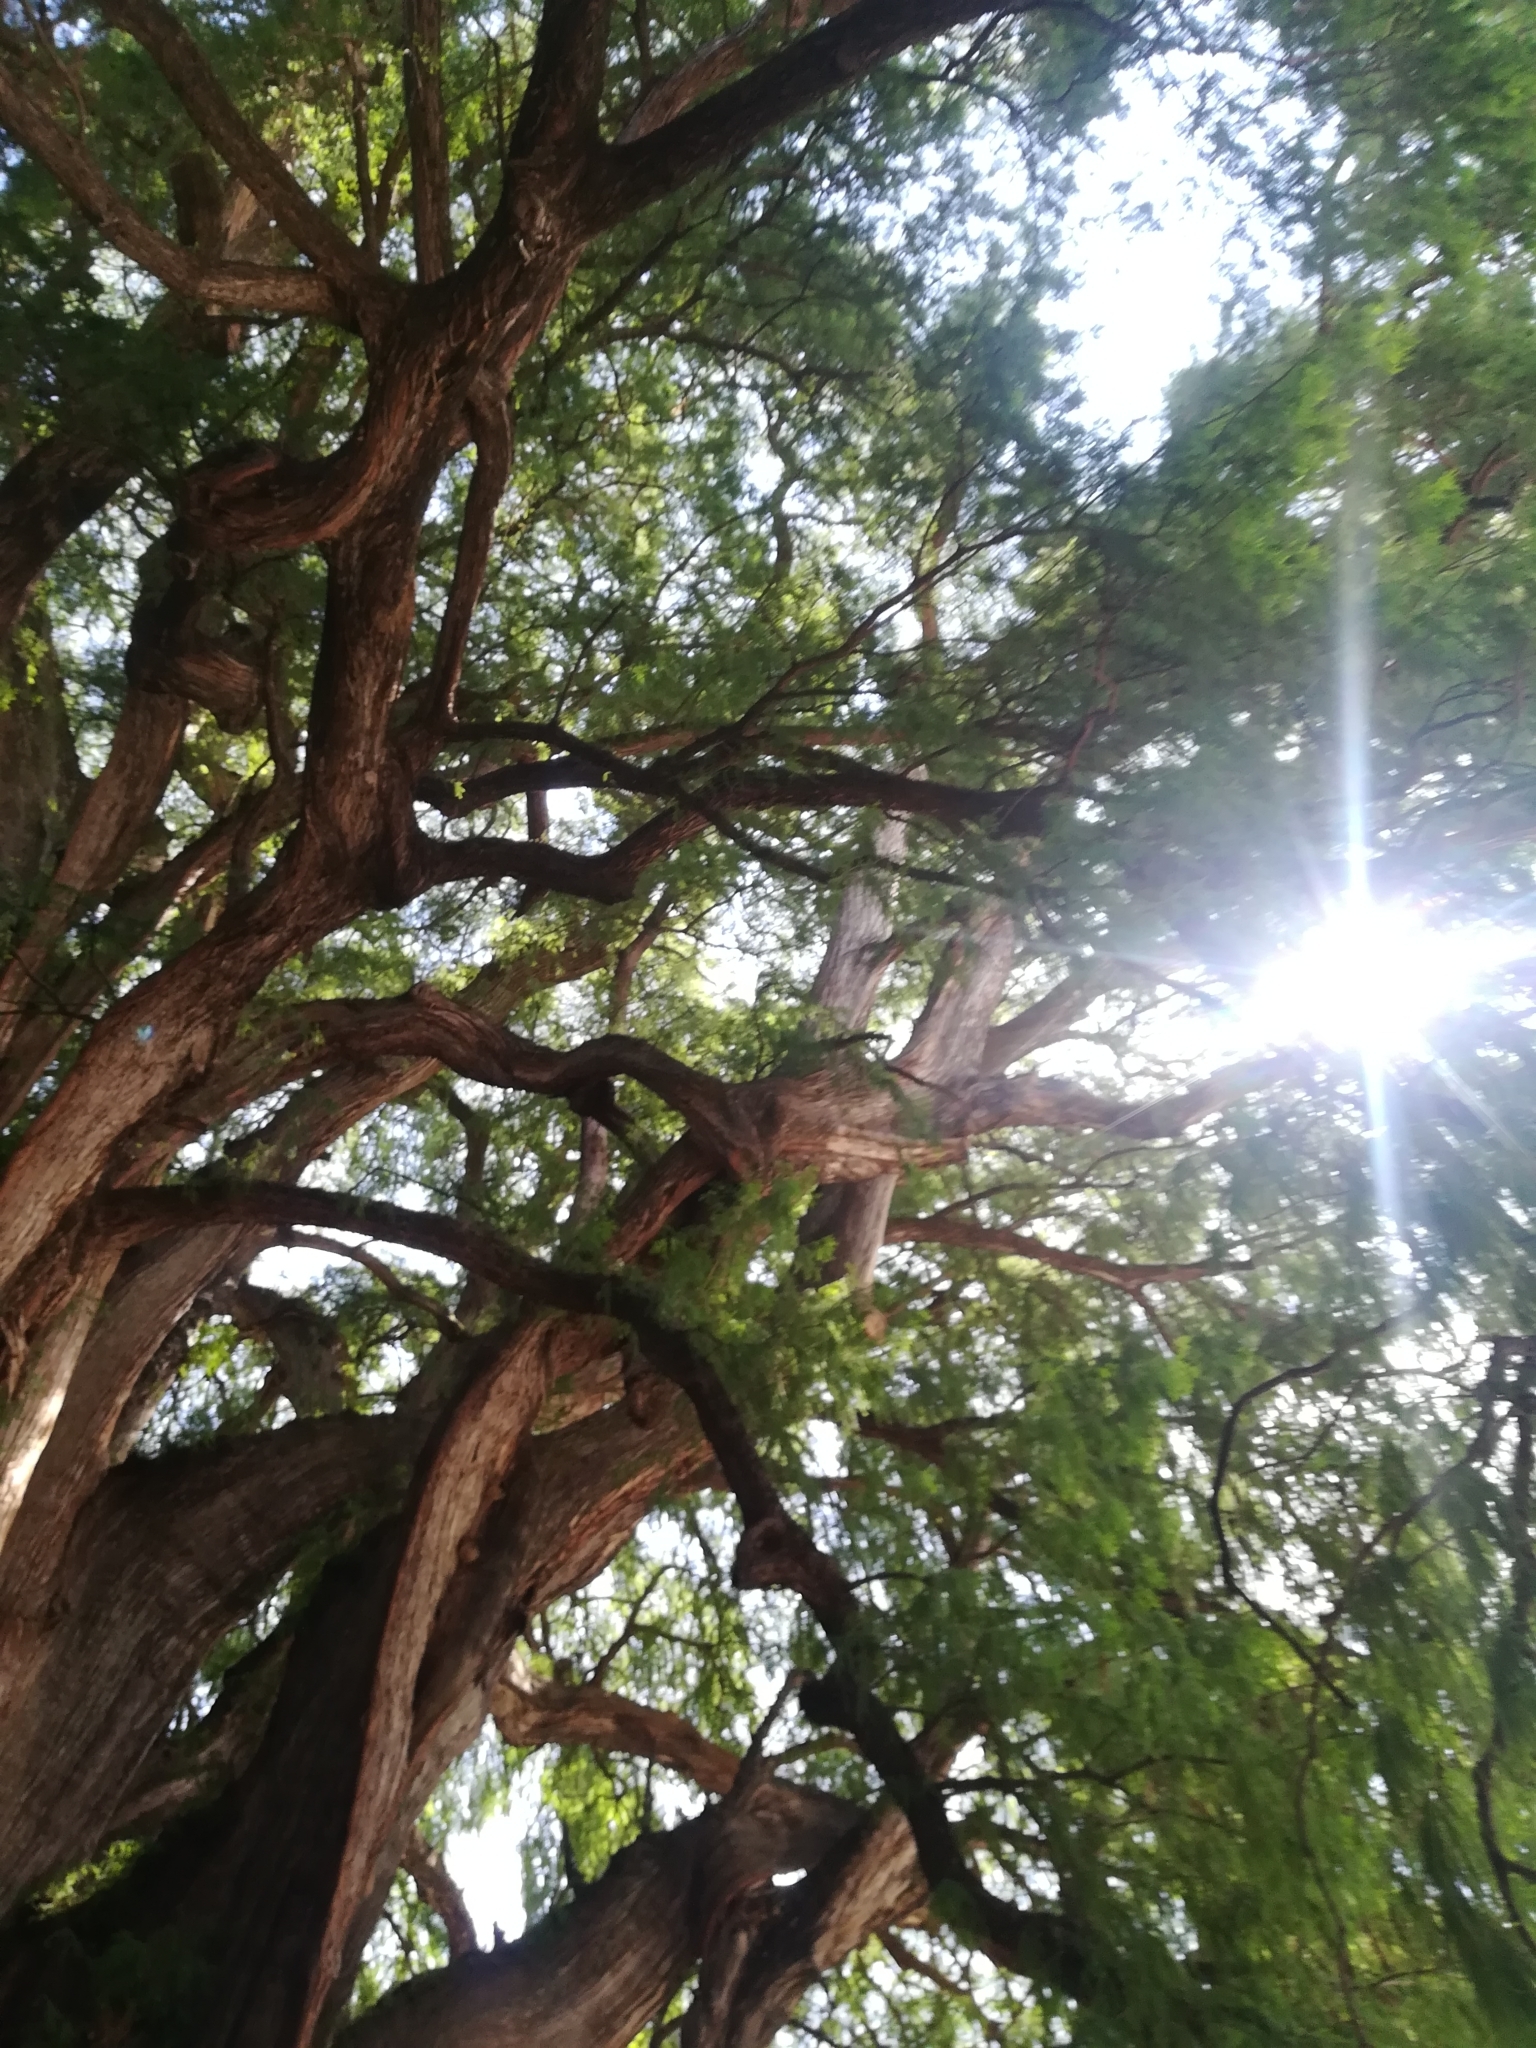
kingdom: Plantae
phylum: Tracheophyta
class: Pinopsida
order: Pinales
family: Cupressaceae
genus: Taxodium
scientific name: Taxodium mucronatum
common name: Montezume bald cypress
